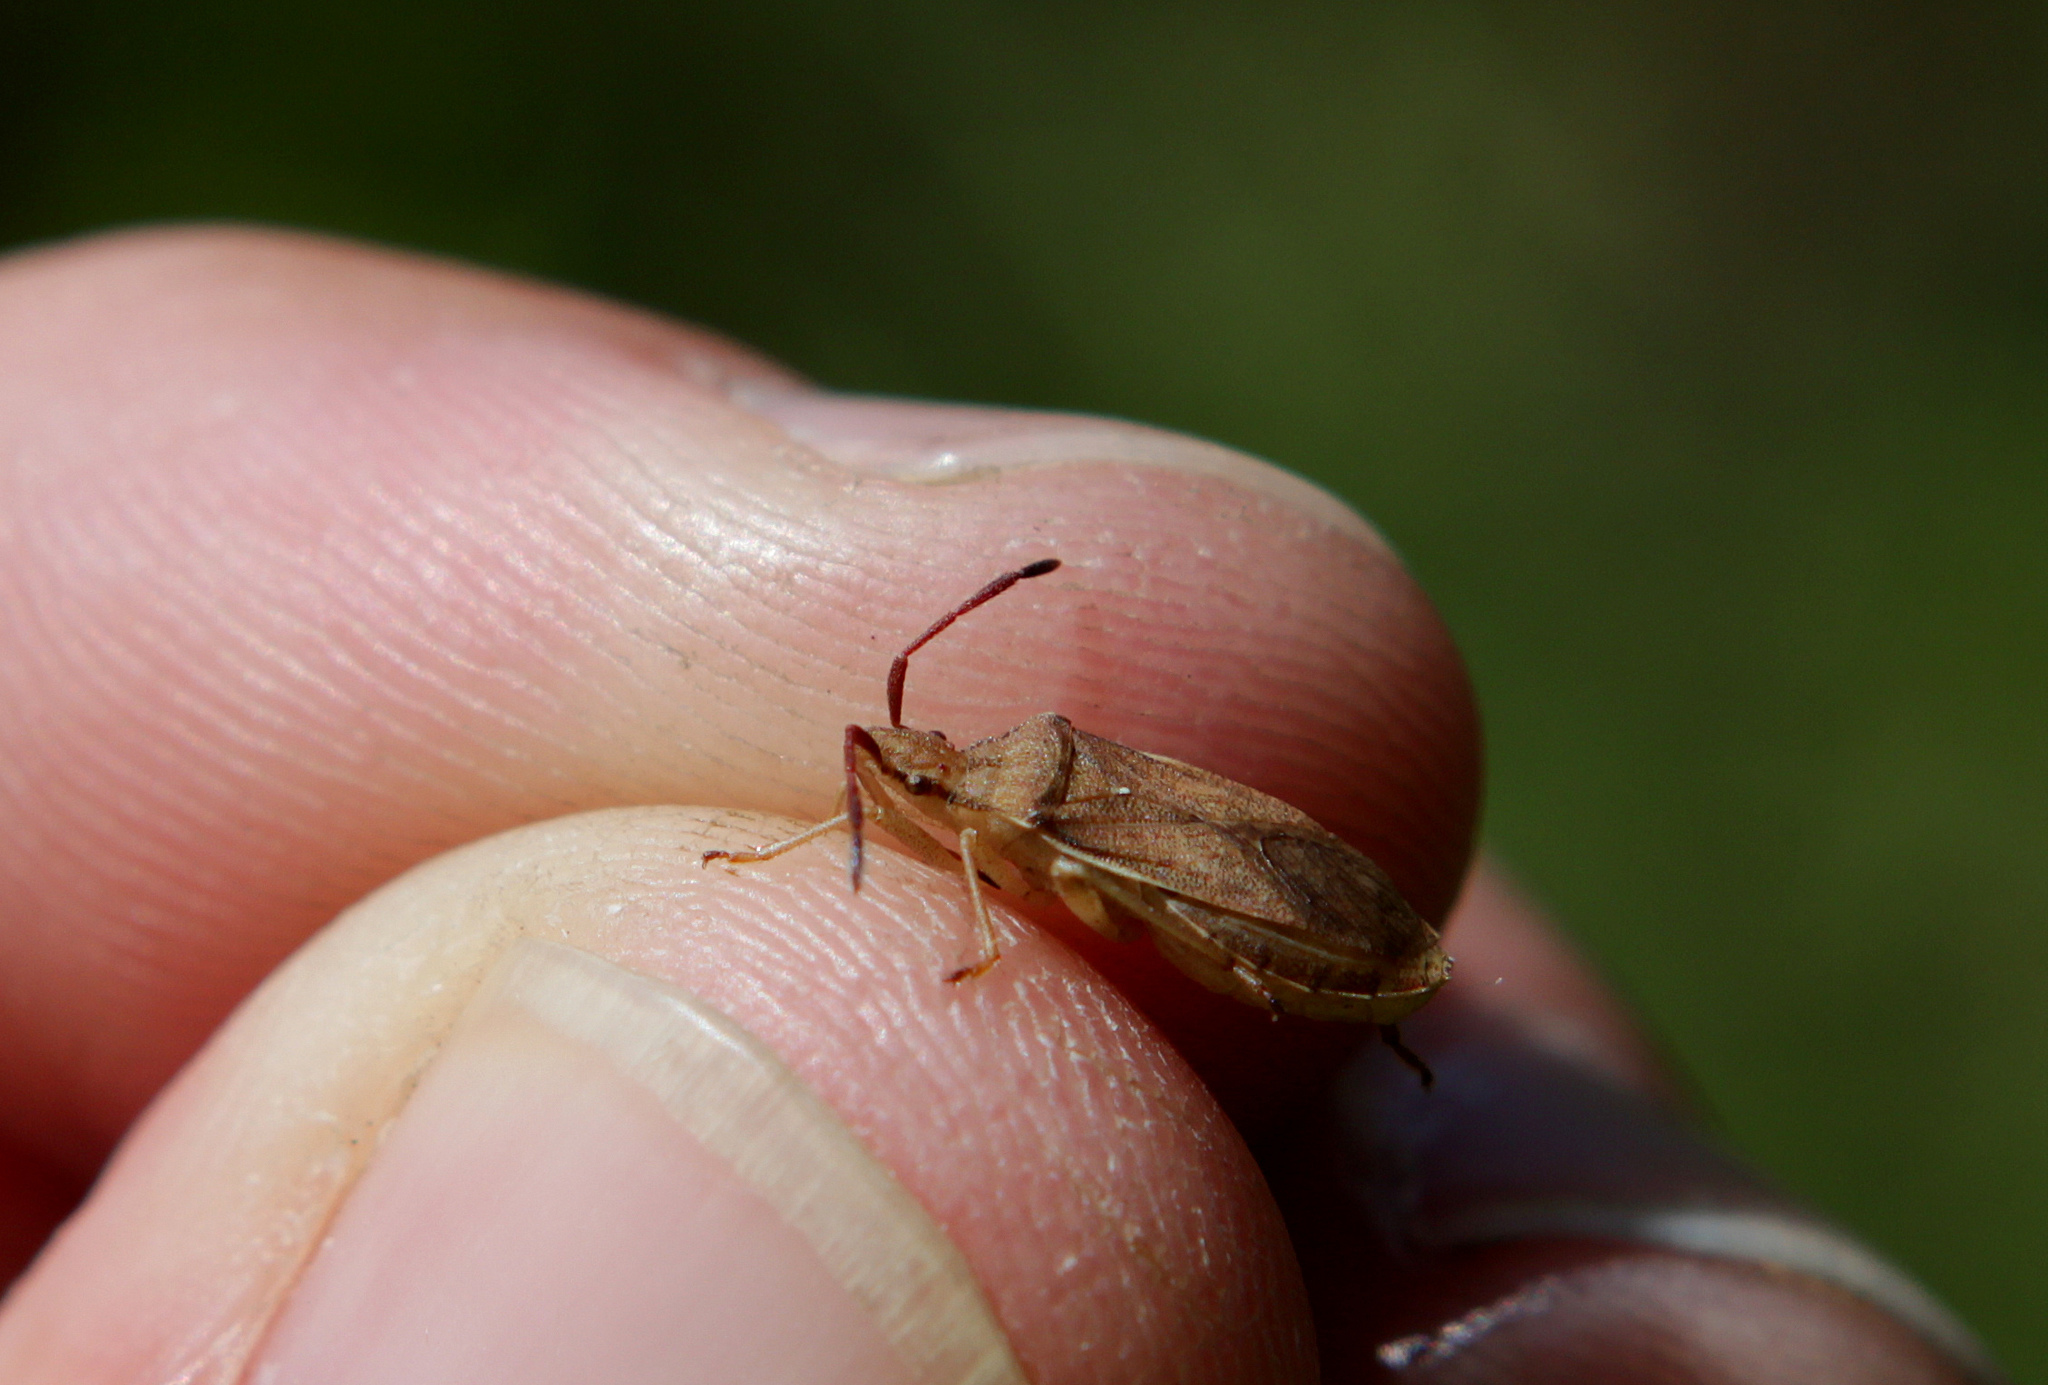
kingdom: Animalia
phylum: Arthropoda
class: Insecta
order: Hemiptera
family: Coreidae
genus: Ceraleptus
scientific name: Ceraleptus lividus
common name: Slender-horned leatherbug
